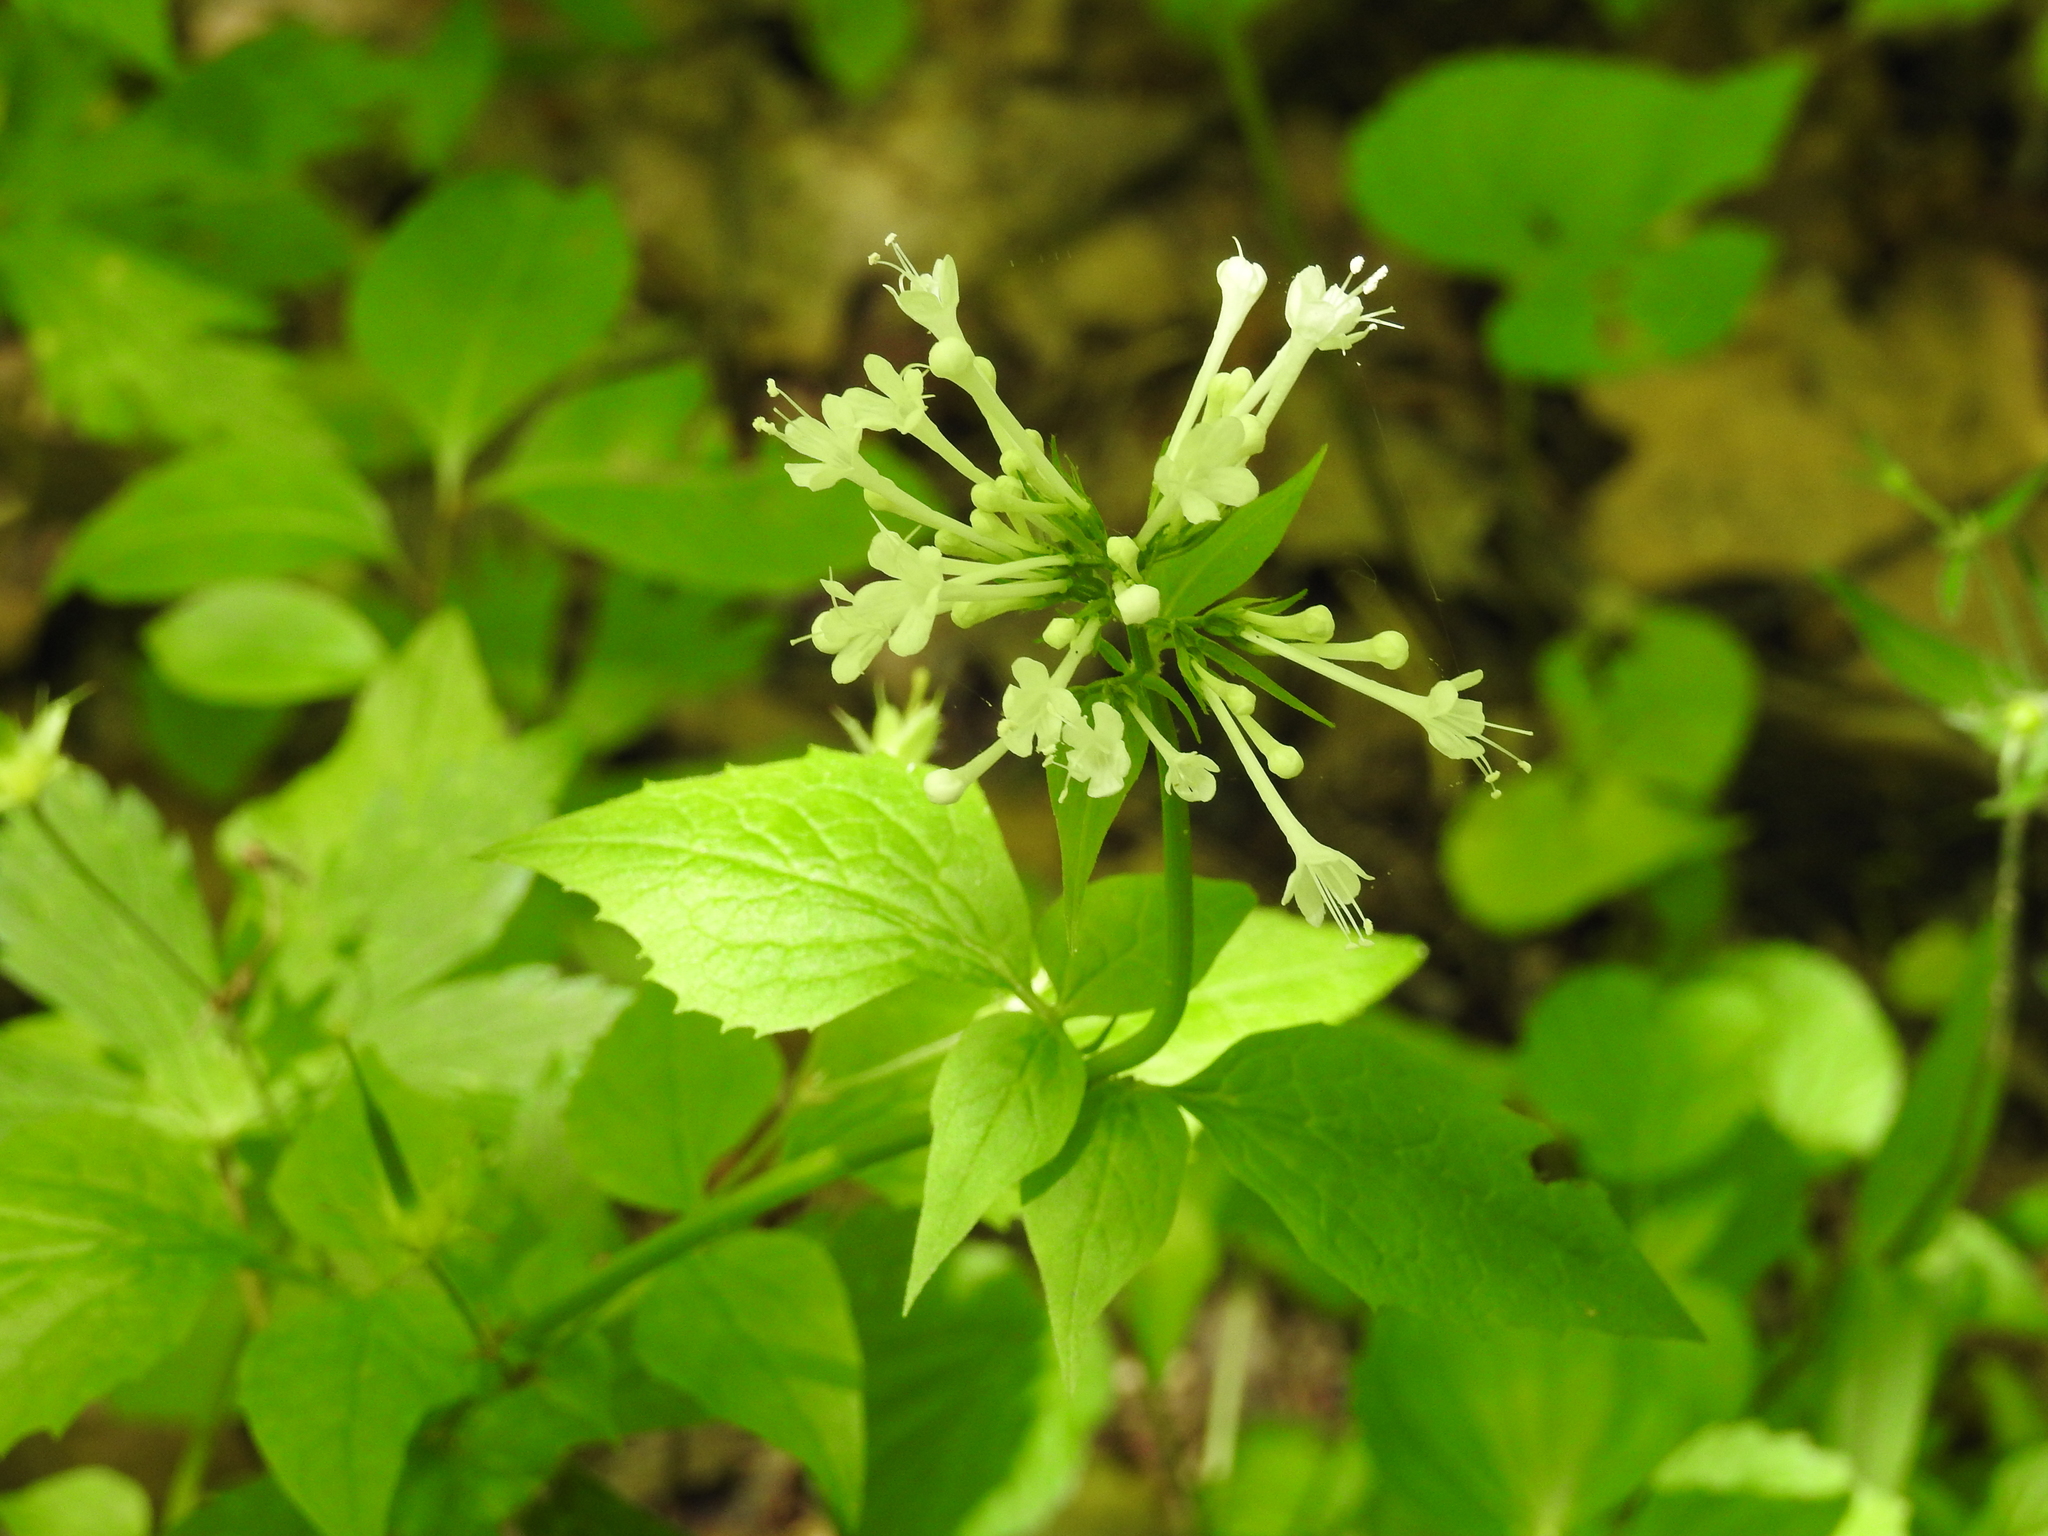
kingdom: Plantae
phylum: Tracheophyta
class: Magnoliopsida
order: Dipsacales
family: Caprifoliaceae
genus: Valeriana
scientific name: Valeriana pauciflora
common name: Long-tube valeriana
